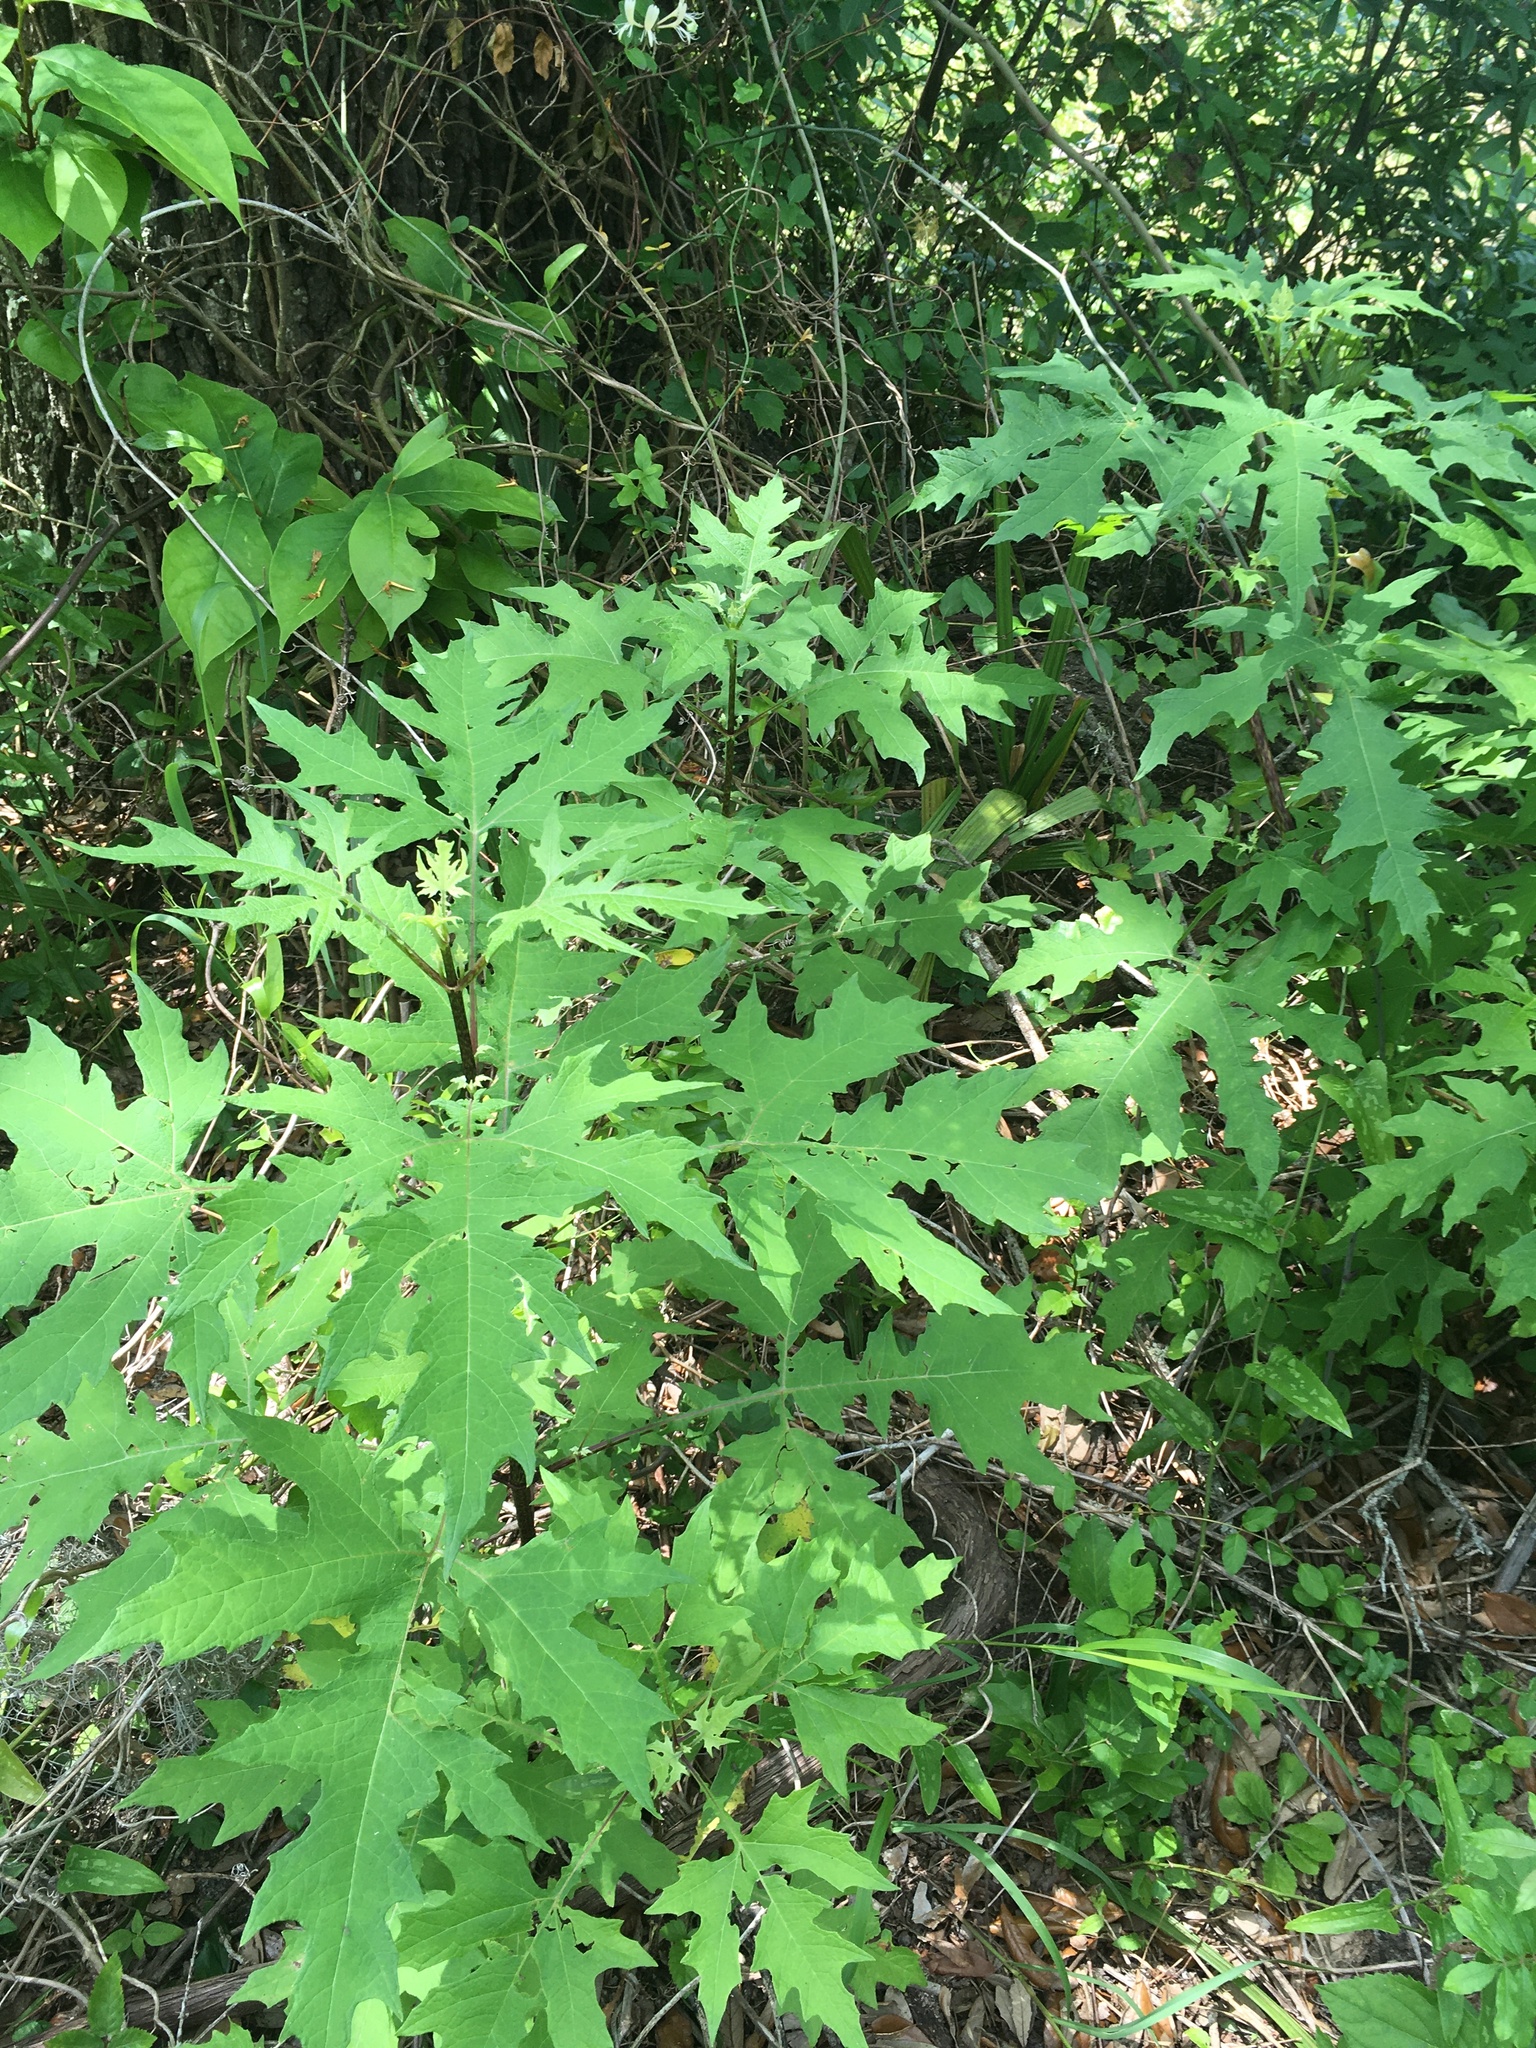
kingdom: Plantae
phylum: Tracheophyta
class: Magnoliopsida
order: Asterales
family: Asteraceae
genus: Smallanthus
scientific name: Smallanthus uvedalia
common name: Bear's-foot
